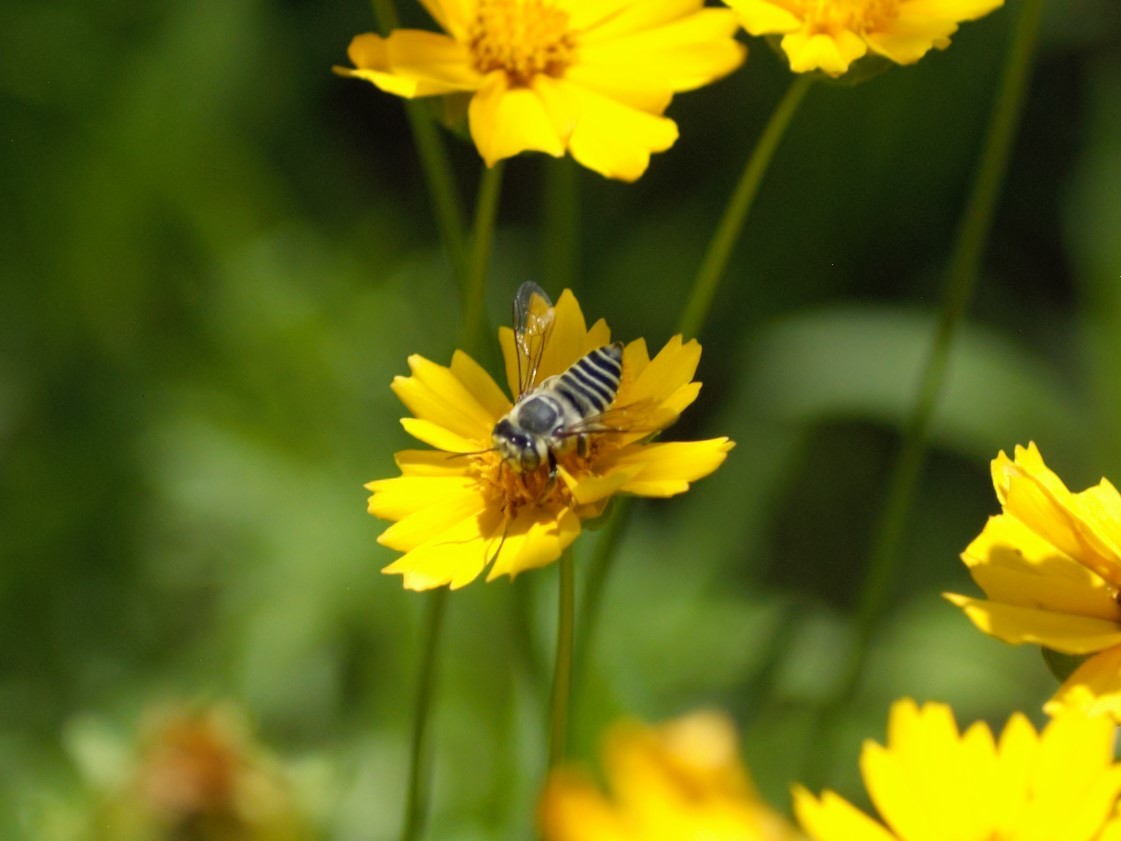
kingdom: Animalia
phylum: Arthropoda
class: Insecta
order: Hymenoptera
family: Megachilidae
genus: Megachile
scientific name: Megachile
